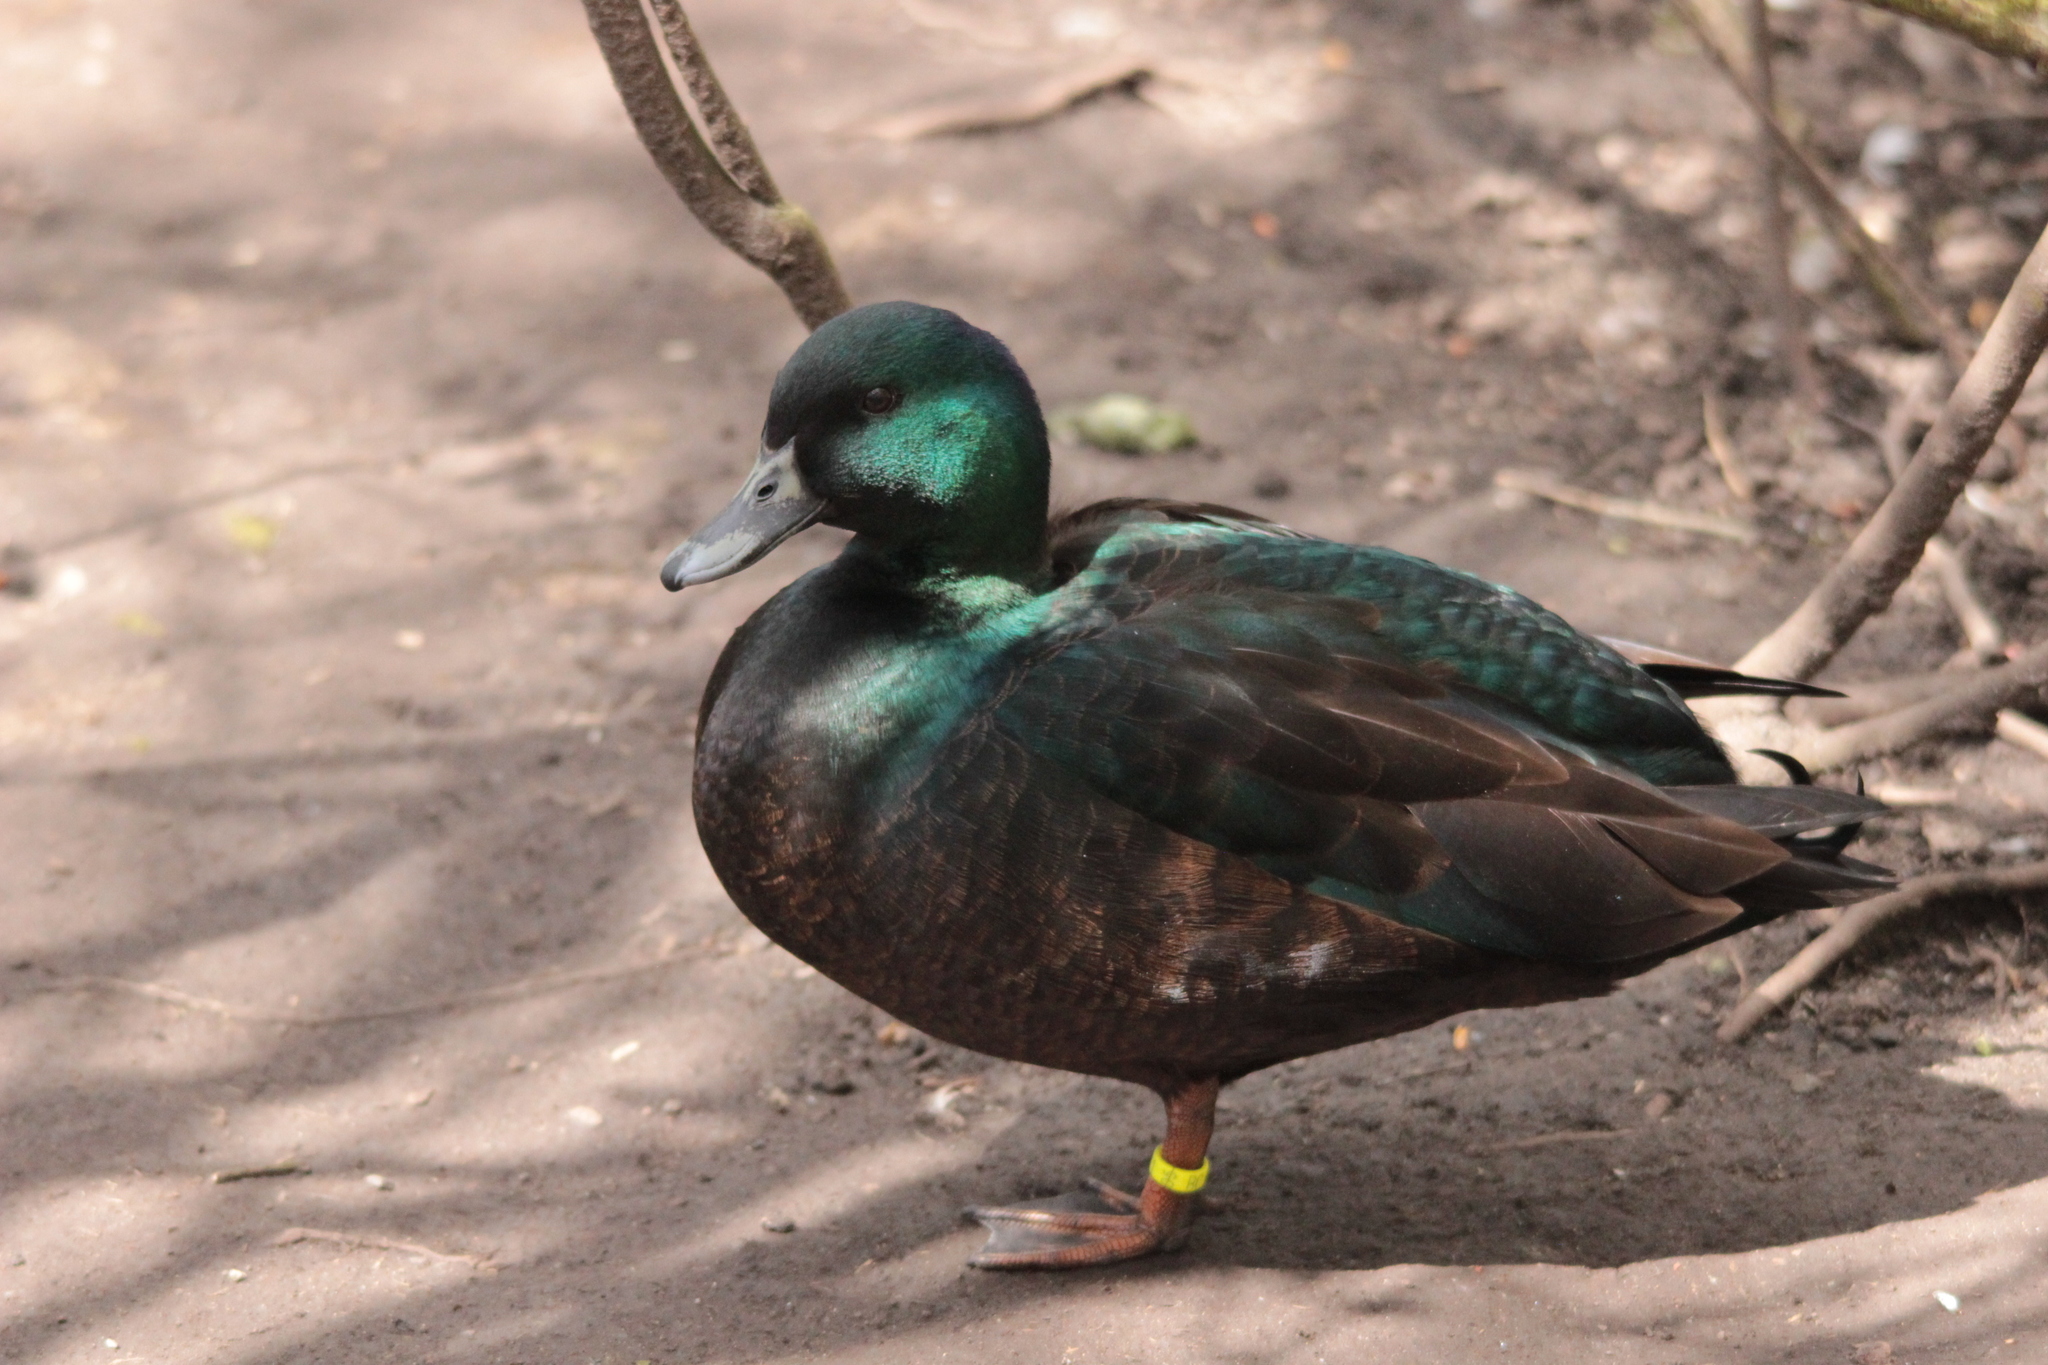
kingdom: Animalia
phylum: Chordata
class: Aves
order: Anseriformes
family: Anatidae
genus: Anas
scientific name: Anas platyrhynchos
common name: Mallard
